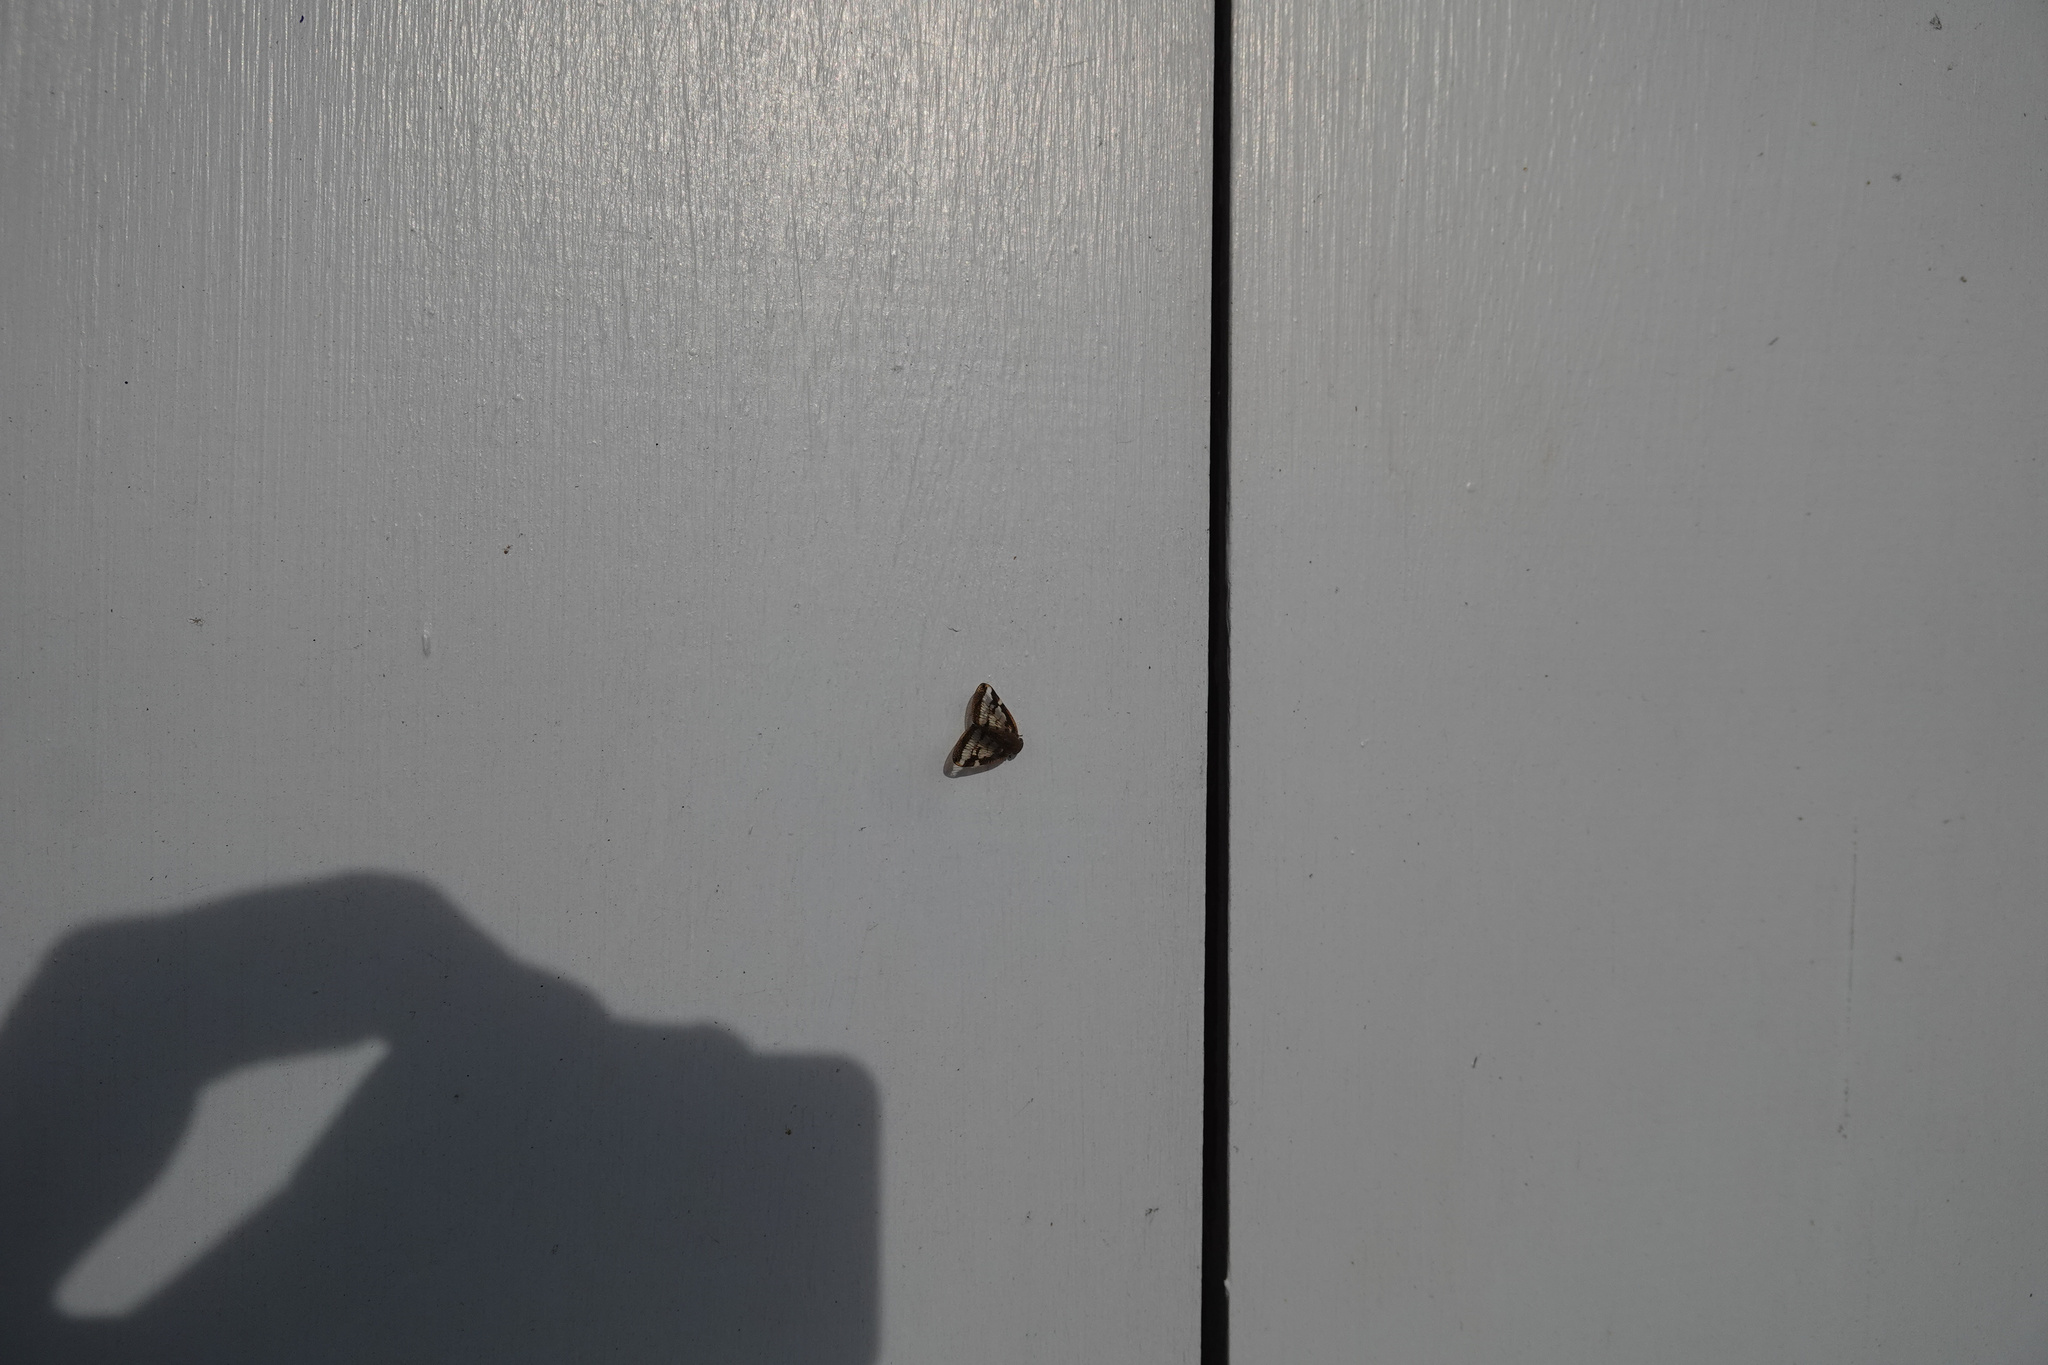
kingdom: Animalia
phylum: Arthropoda
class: Insecta
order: Hemiptera
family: Ricaniidae
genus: Scolypopa
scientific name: Scolypopa australis
